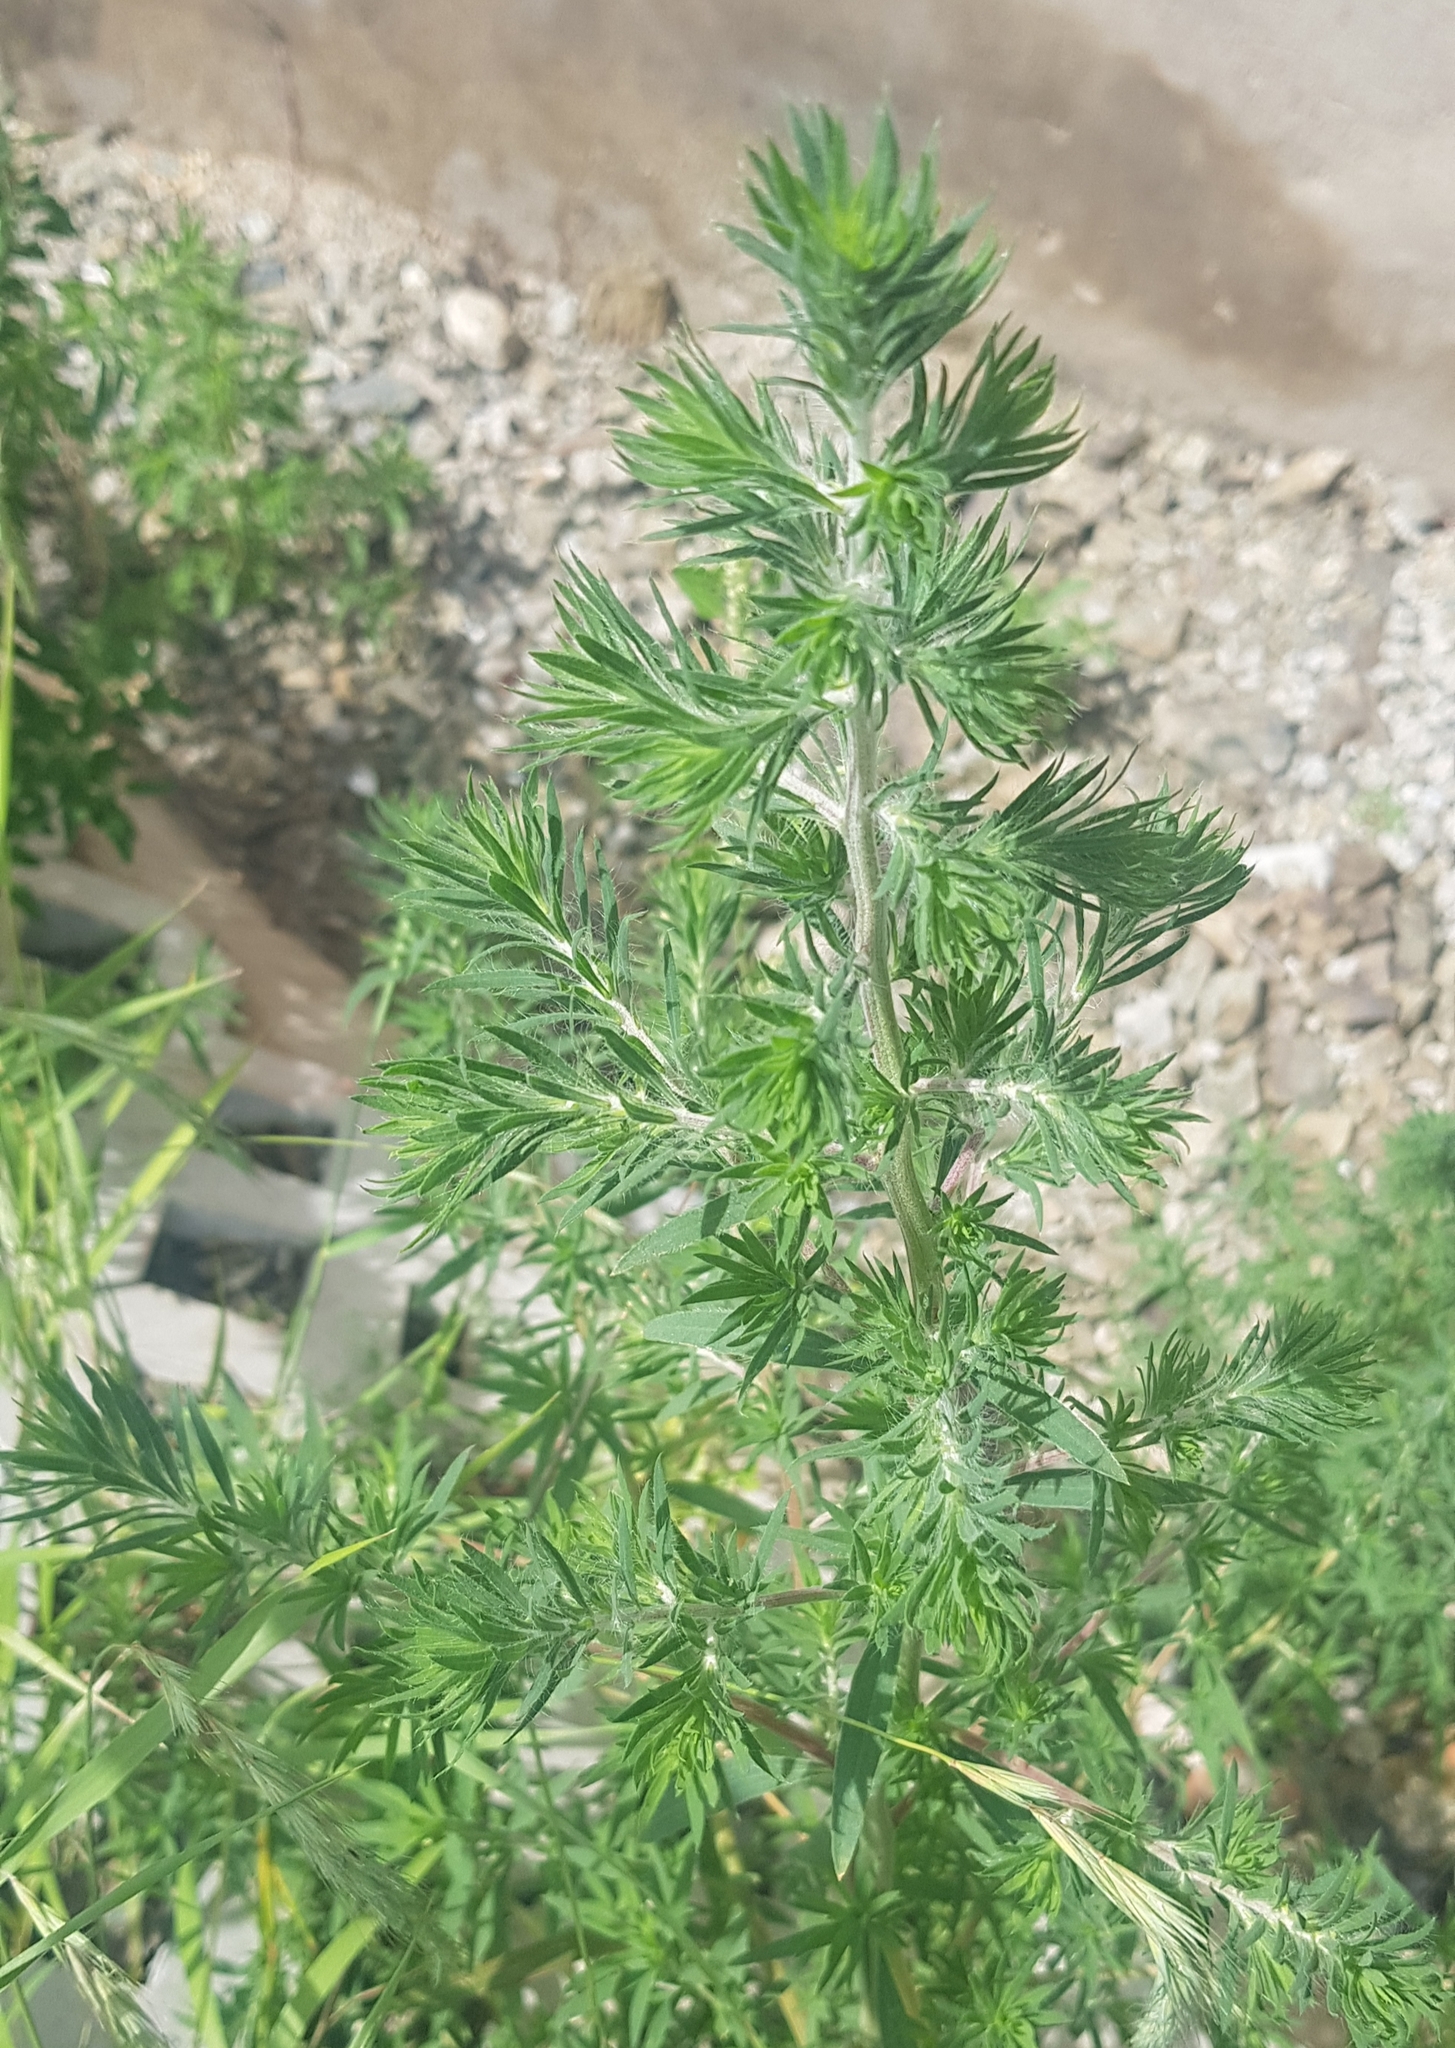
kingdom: Plantae
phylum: Tracheophyta
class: Magnoliopsida
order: Caryophyllales
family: Amaranthaceae
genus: Bassia
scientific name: Bassia scoparia
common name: Belvedere
